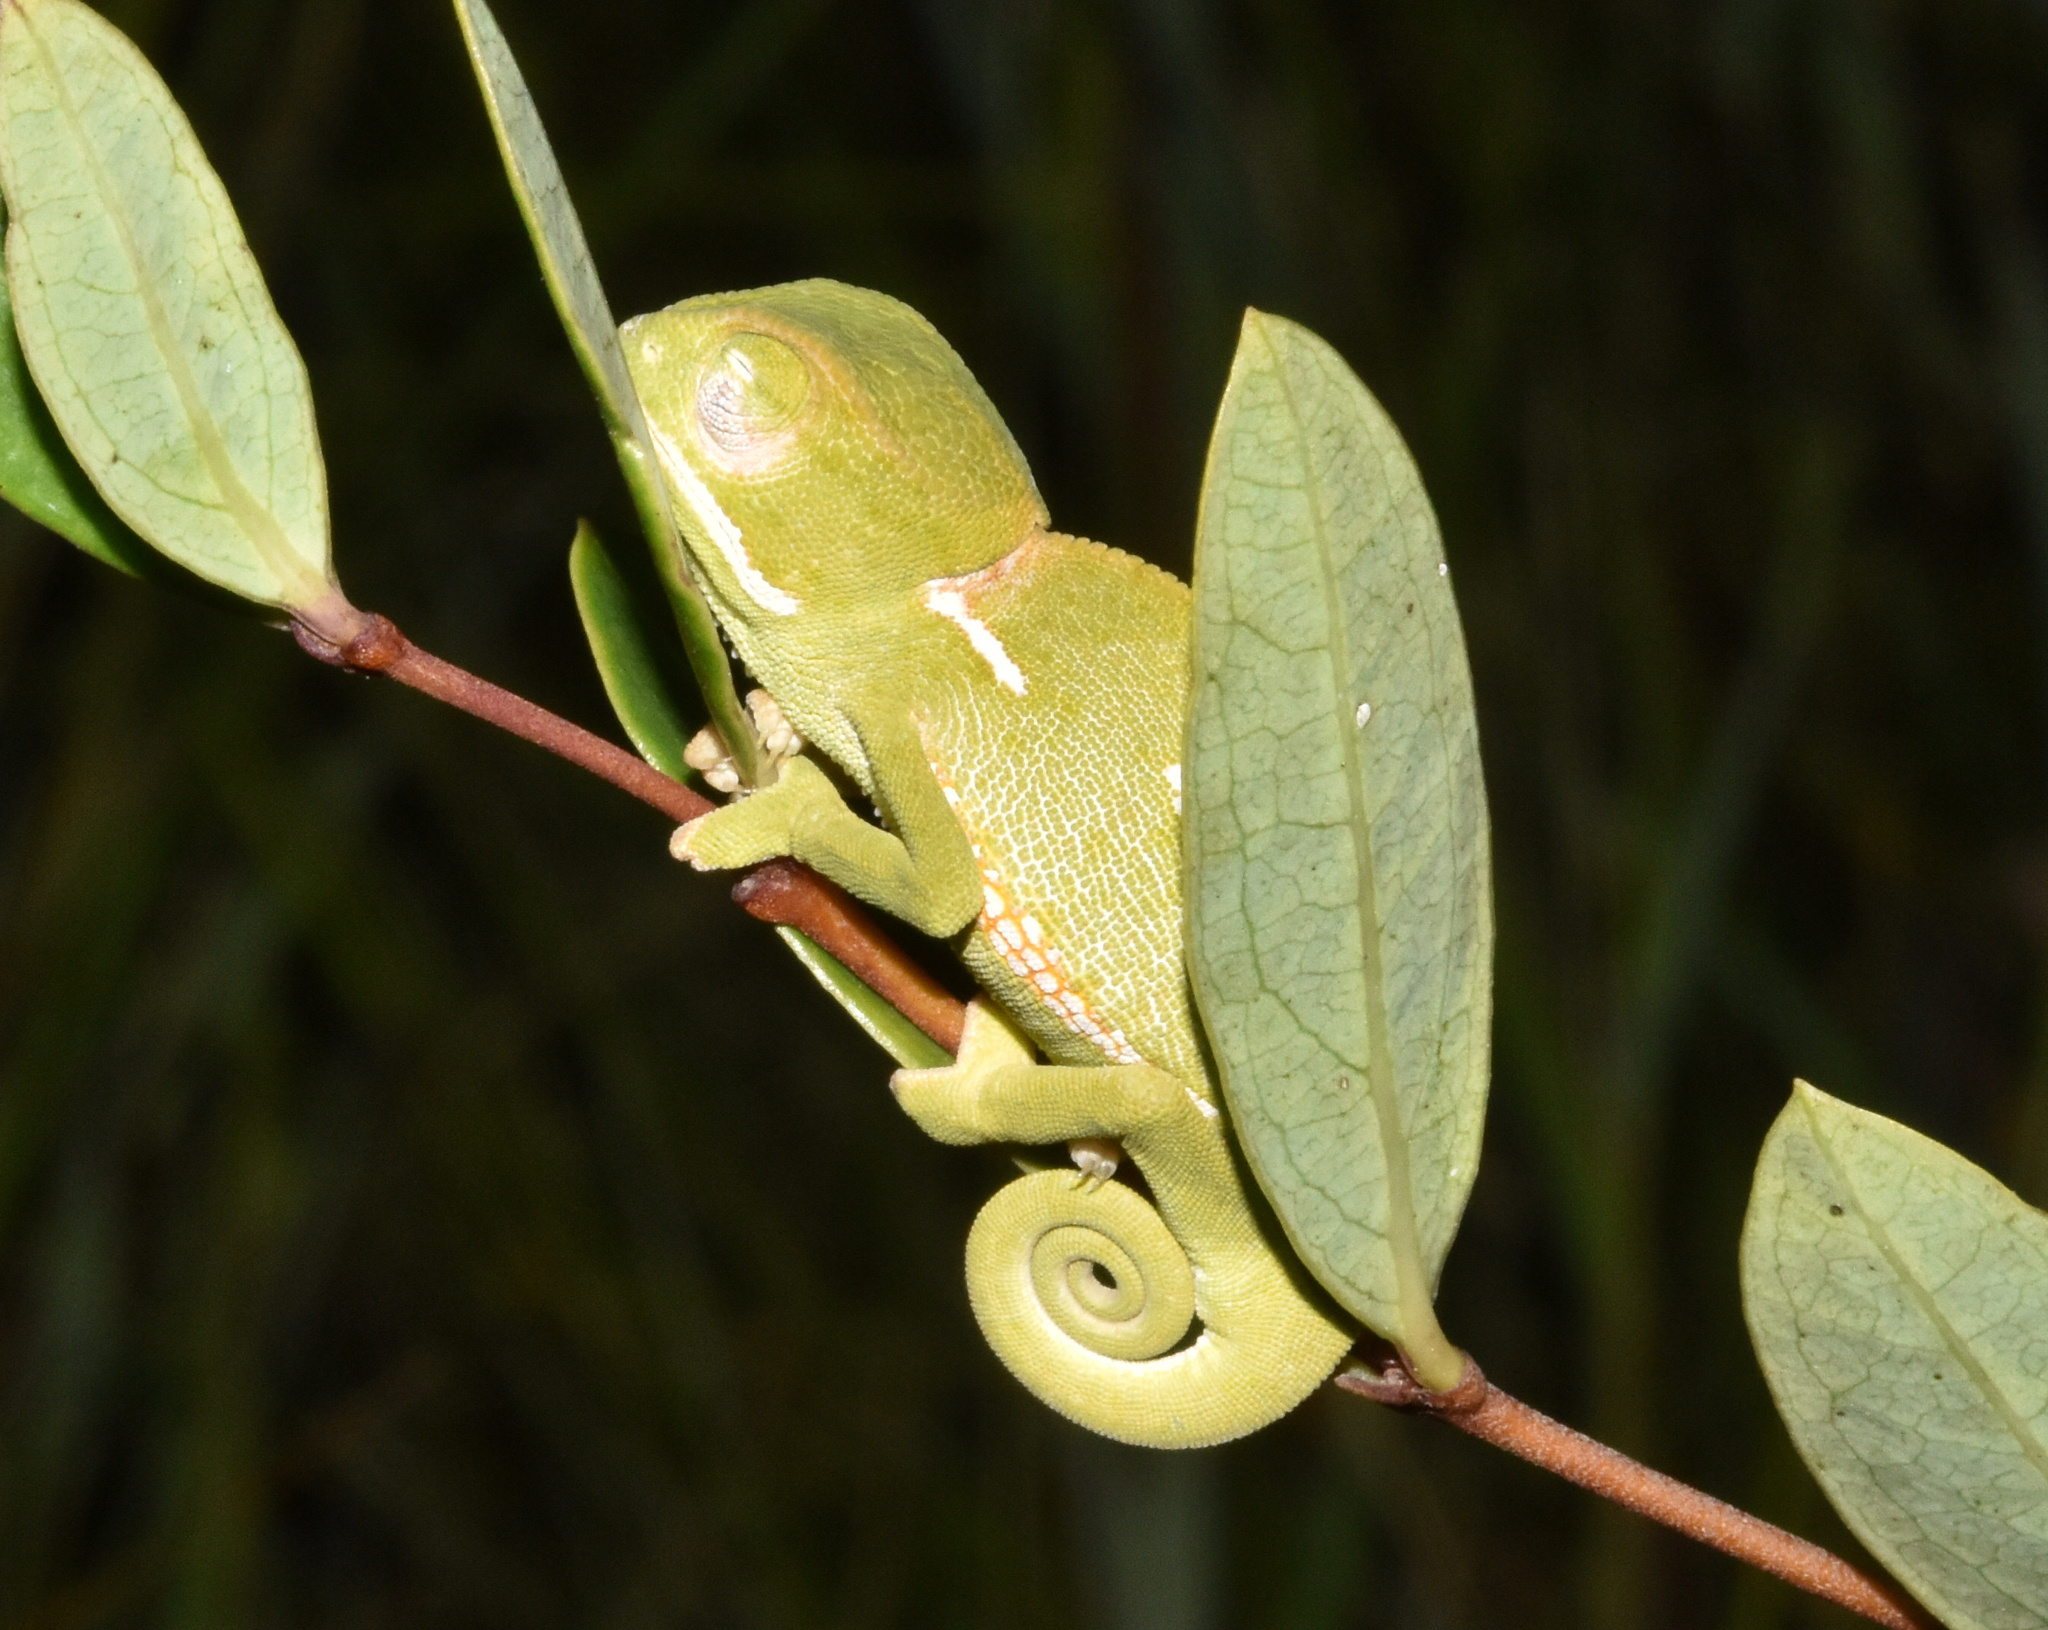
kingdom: Animalia
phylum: Chordata
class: Squamata
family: Chamaeleonidae
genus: Chamaeleo
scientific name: Chamaeleo dilepis
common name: Flapneck chameleon
